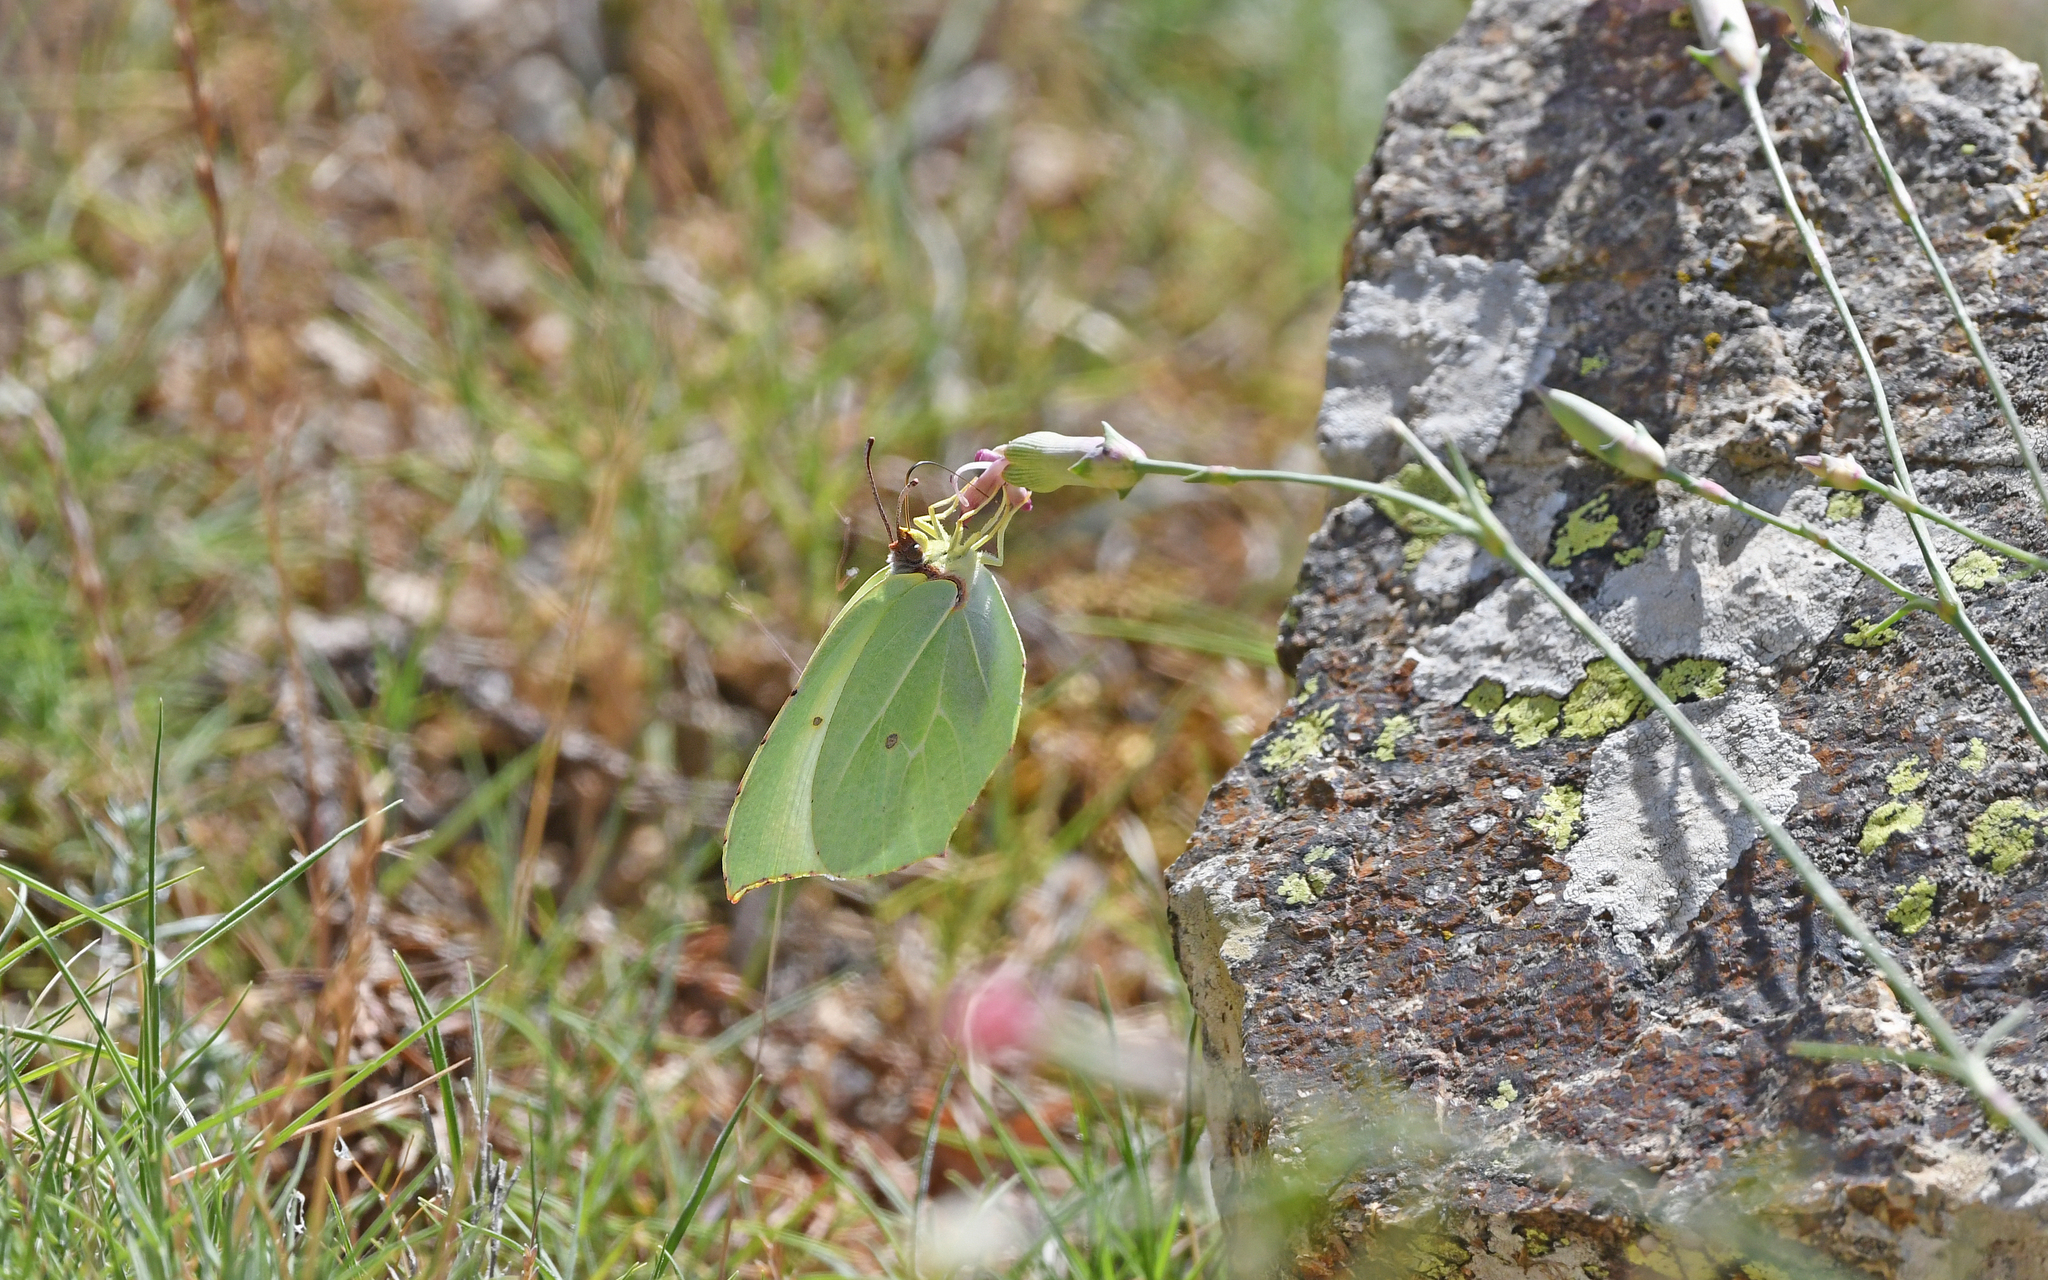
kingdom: Animalia
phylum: Arthropoda
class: Insecta
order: Lepidoptera
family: Pieridae
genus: Gonepteryx
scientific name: Gonepteryx cleopatra
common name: Cleopatra
